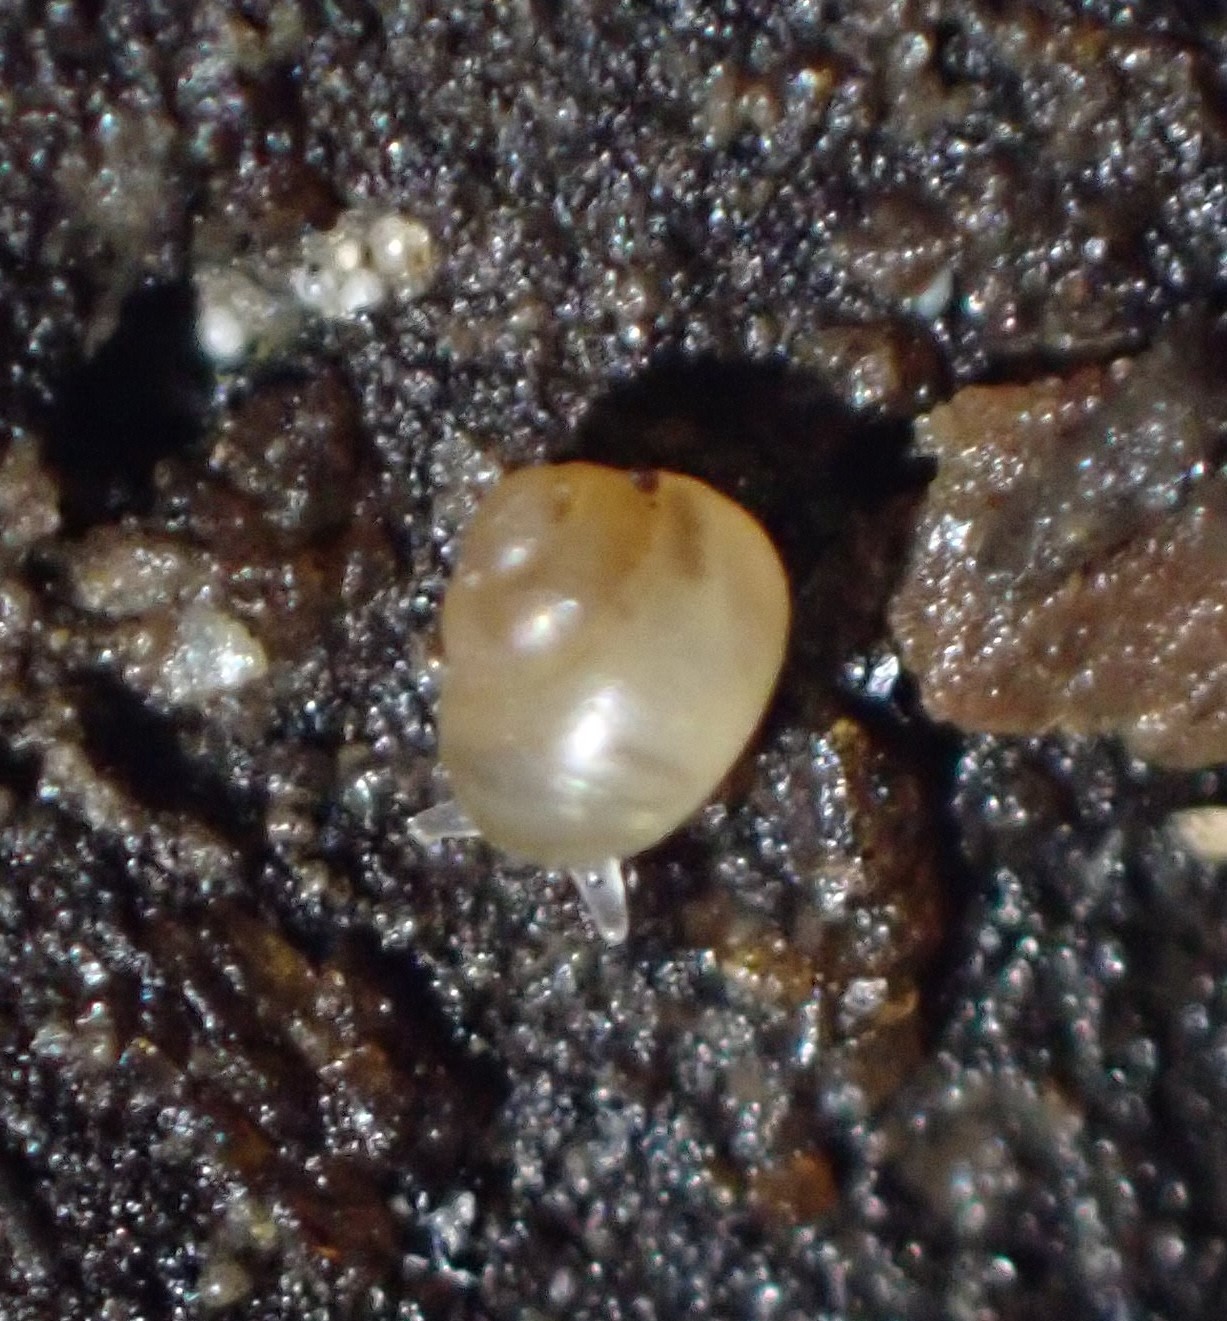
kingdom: Animalia
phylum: Mollusca
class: Gastropoda
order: Littorinimorpha
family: Assimineidae
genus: Suterilla
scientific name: Suterilla neozelanica
